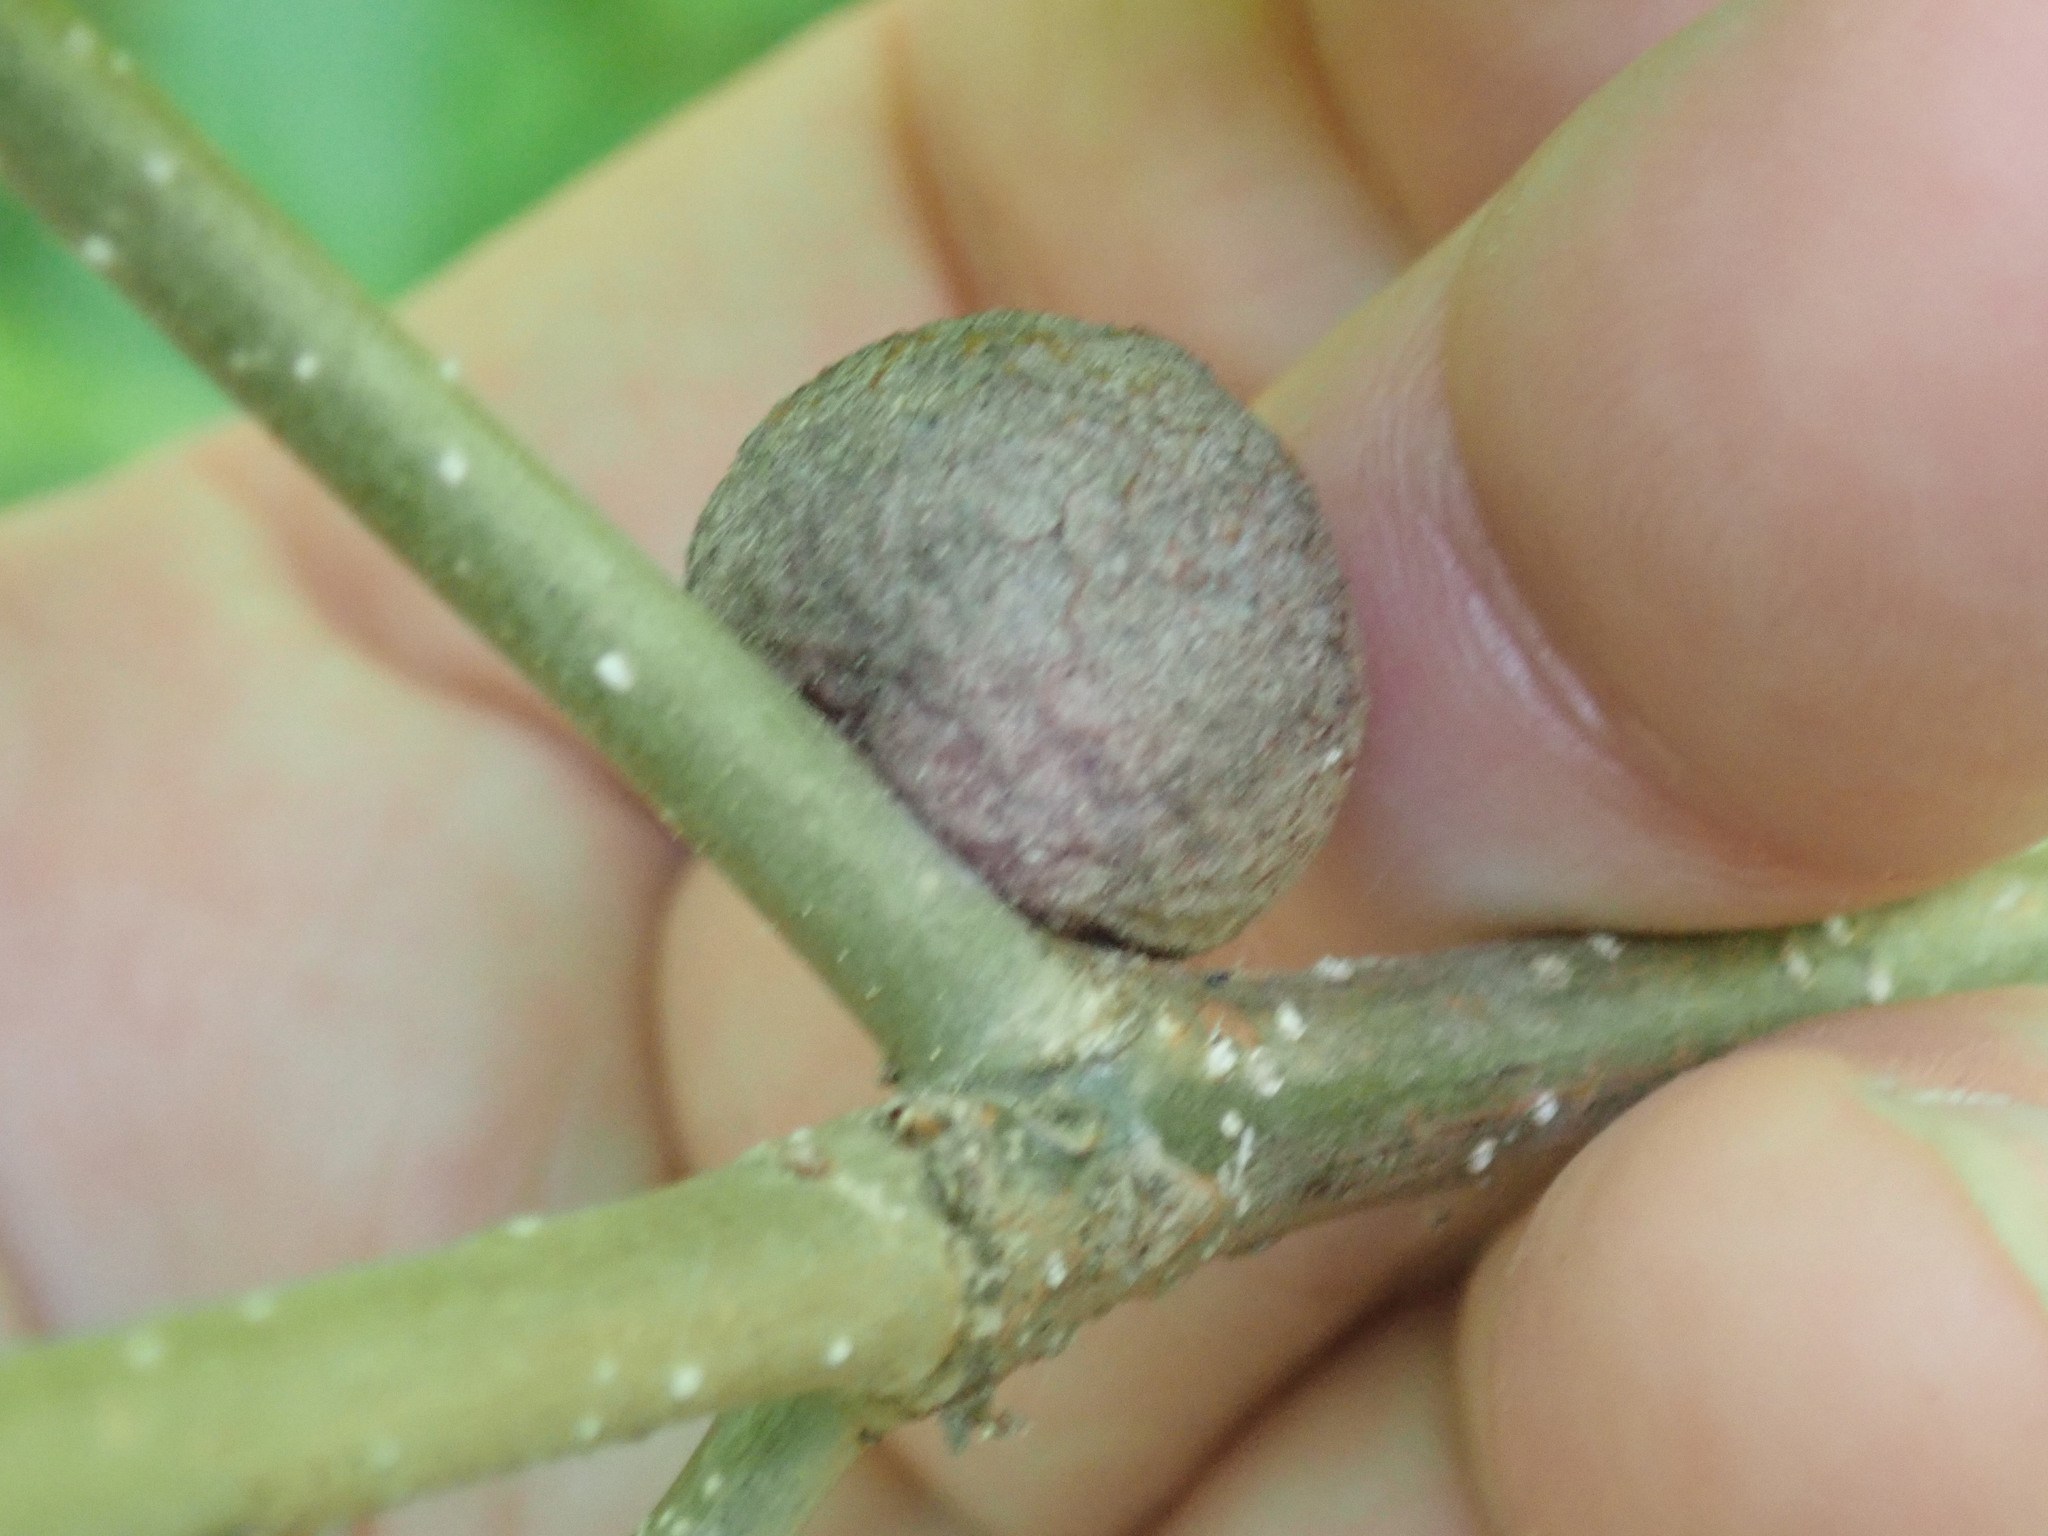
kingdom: Animalia
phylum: Arthropoda
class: Insecta
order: Hymenoptera
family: Cynipidae
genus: Disholcaspis
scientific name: Disholcaspis
